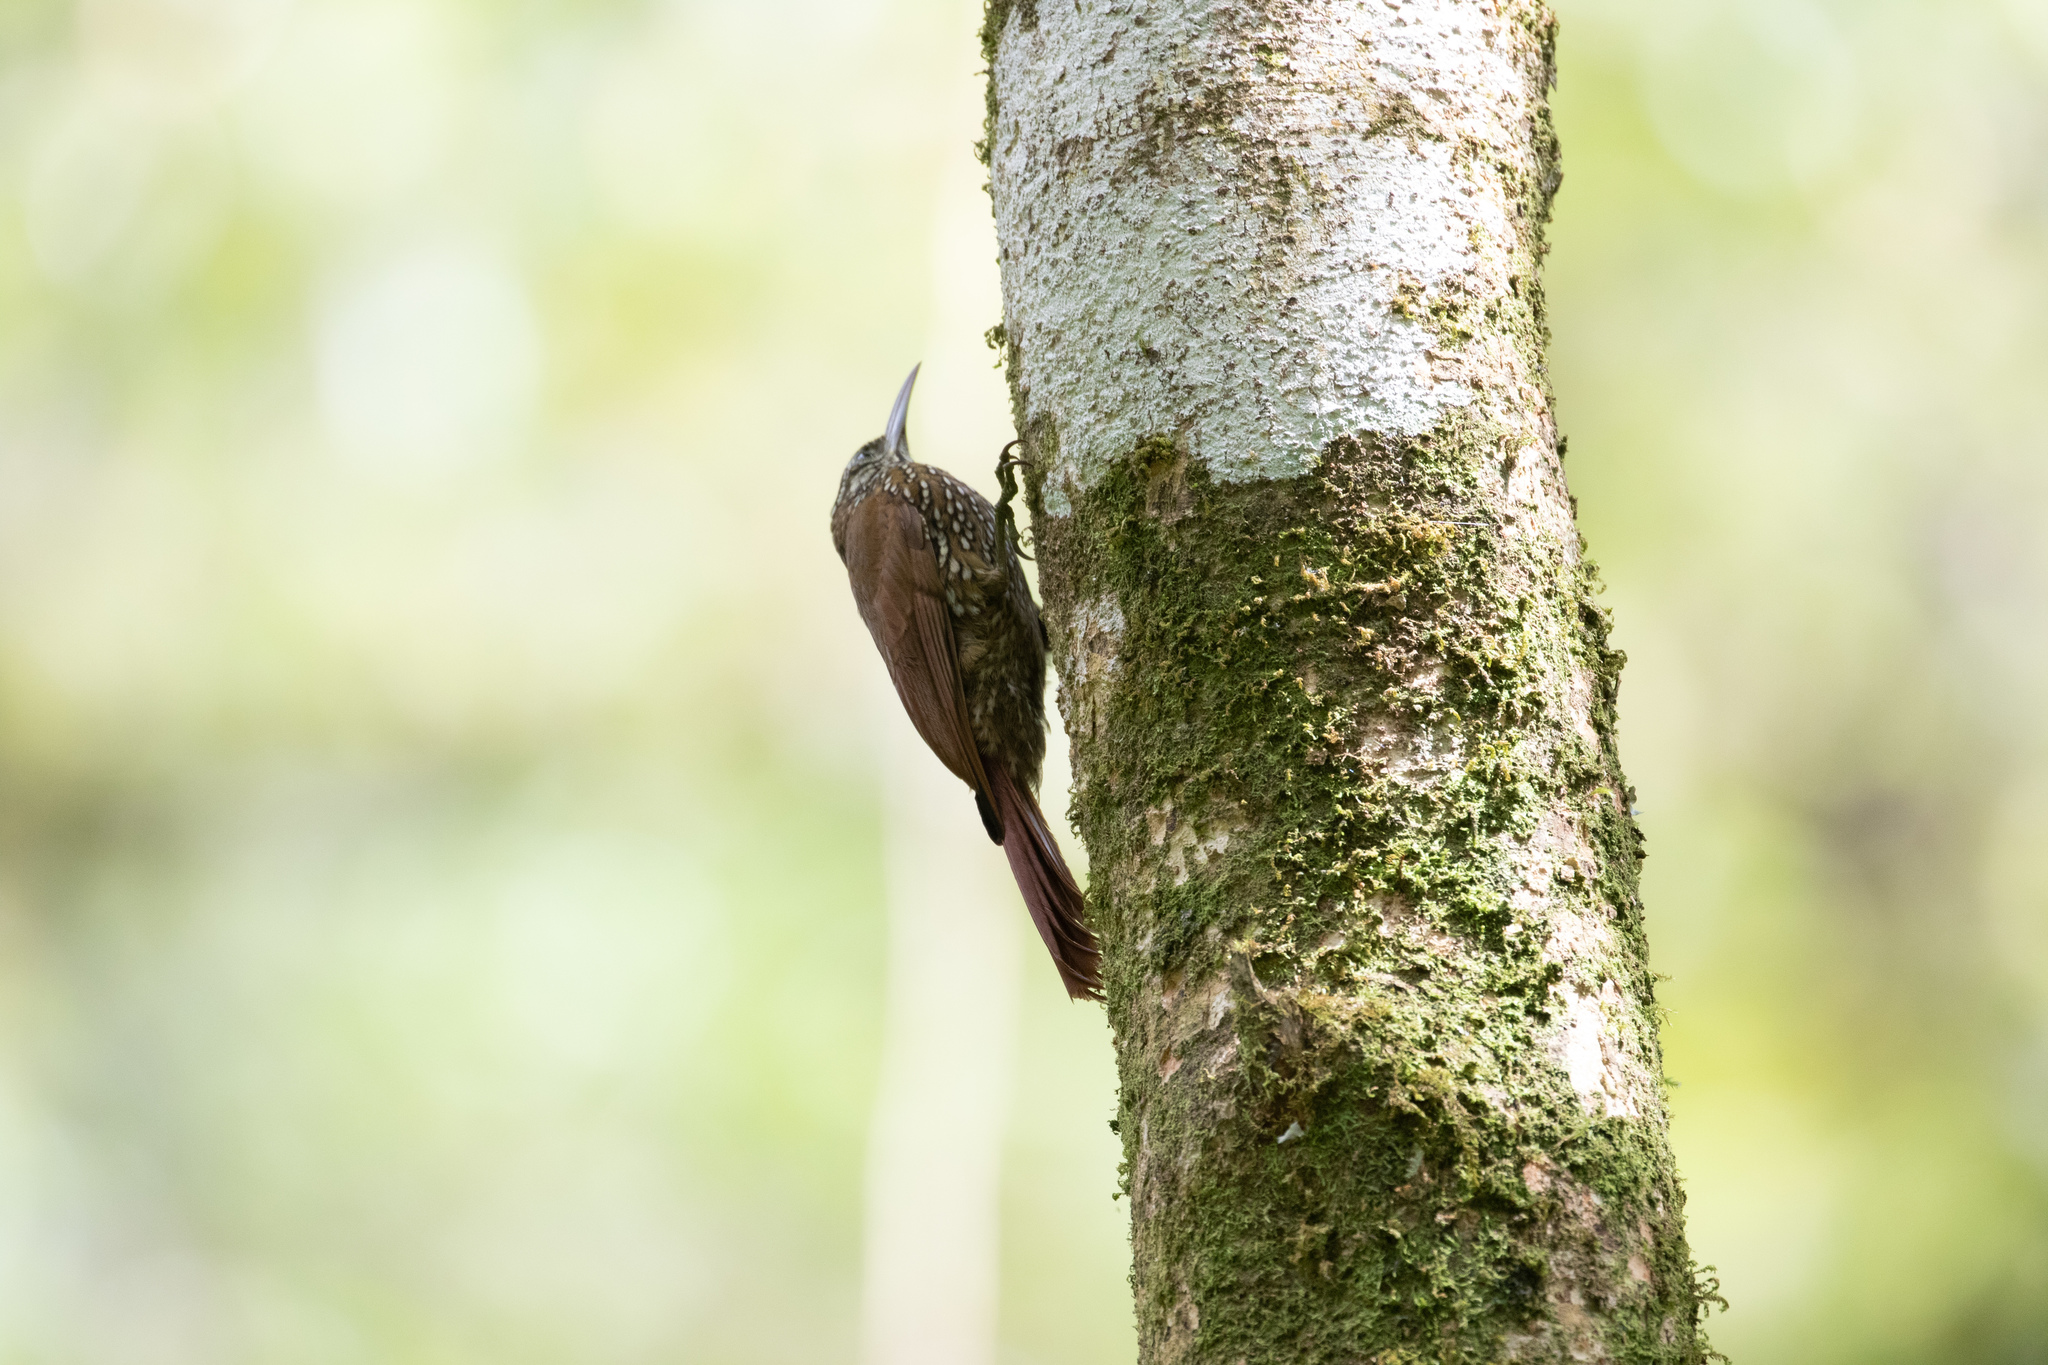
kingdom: Animalia
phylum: Chordata
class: Aves
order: Passeriformes
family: Furnariidae
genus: Lepidocolaptes
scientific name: Lepidocolaptes lacrymiger
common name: Montane woodcreeper
